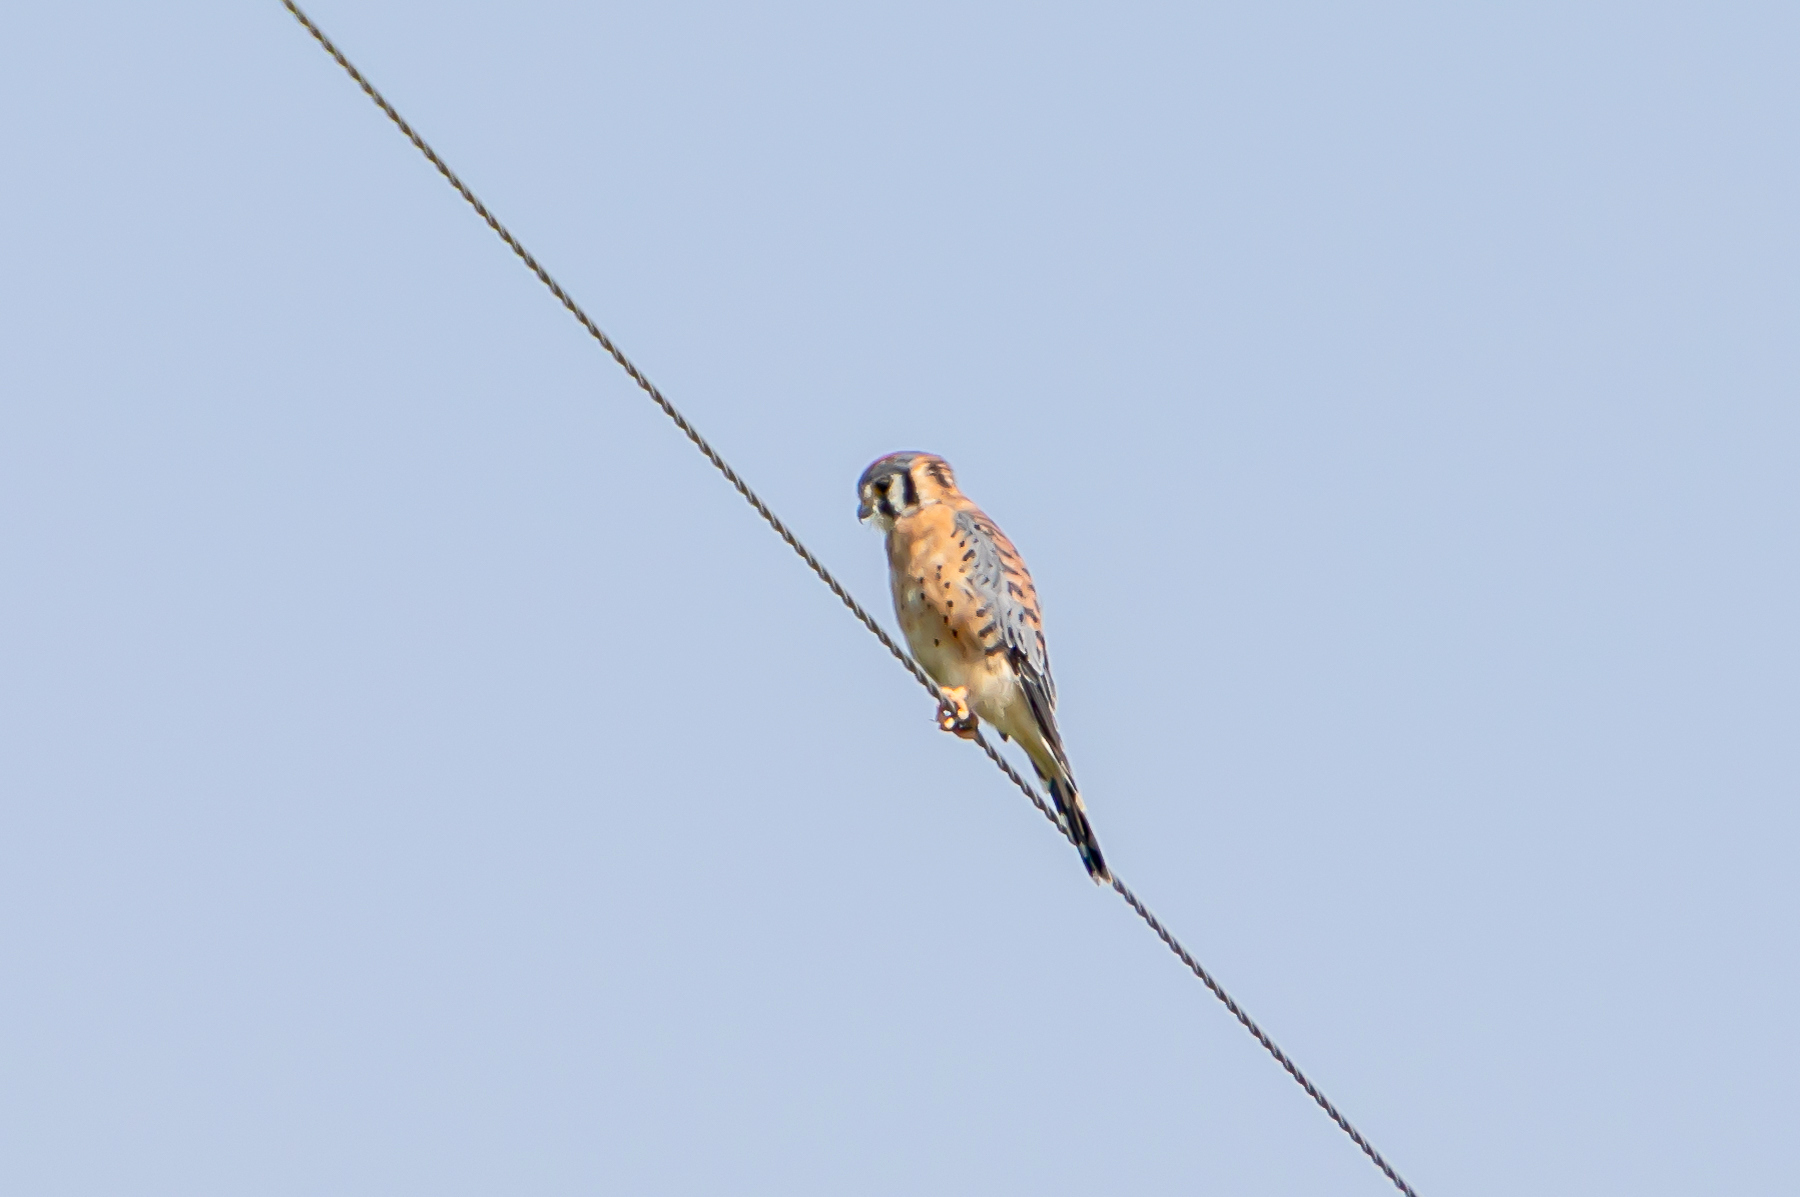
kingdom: Animalia
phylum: Chordata
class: Aves
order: Falconiformes
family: Falconidae
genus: Falco
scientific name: Falco sparverius
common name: American kestrel
